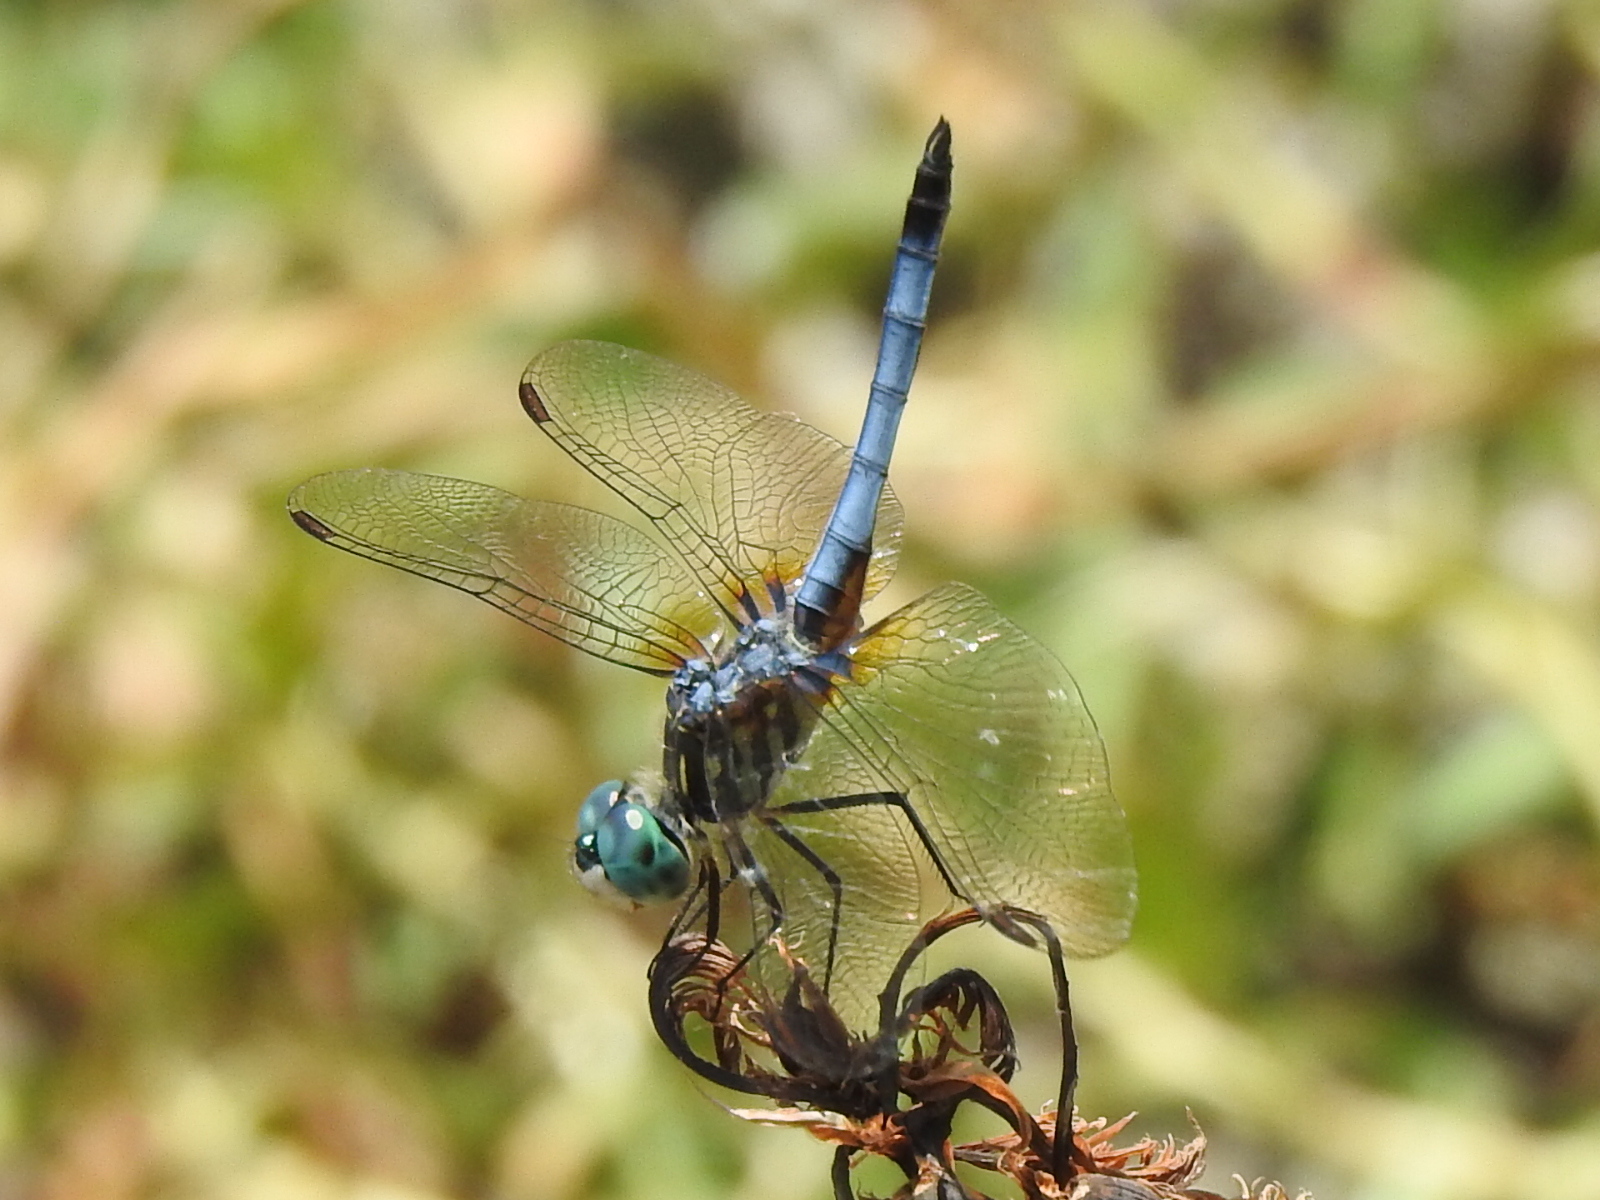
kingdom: Animalia
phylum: Arthropoda
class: Insecta
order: Odonata
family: Libellulidae
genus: Pachydiplax
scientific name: Pachydiplax longipennis
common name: Blue dasher
